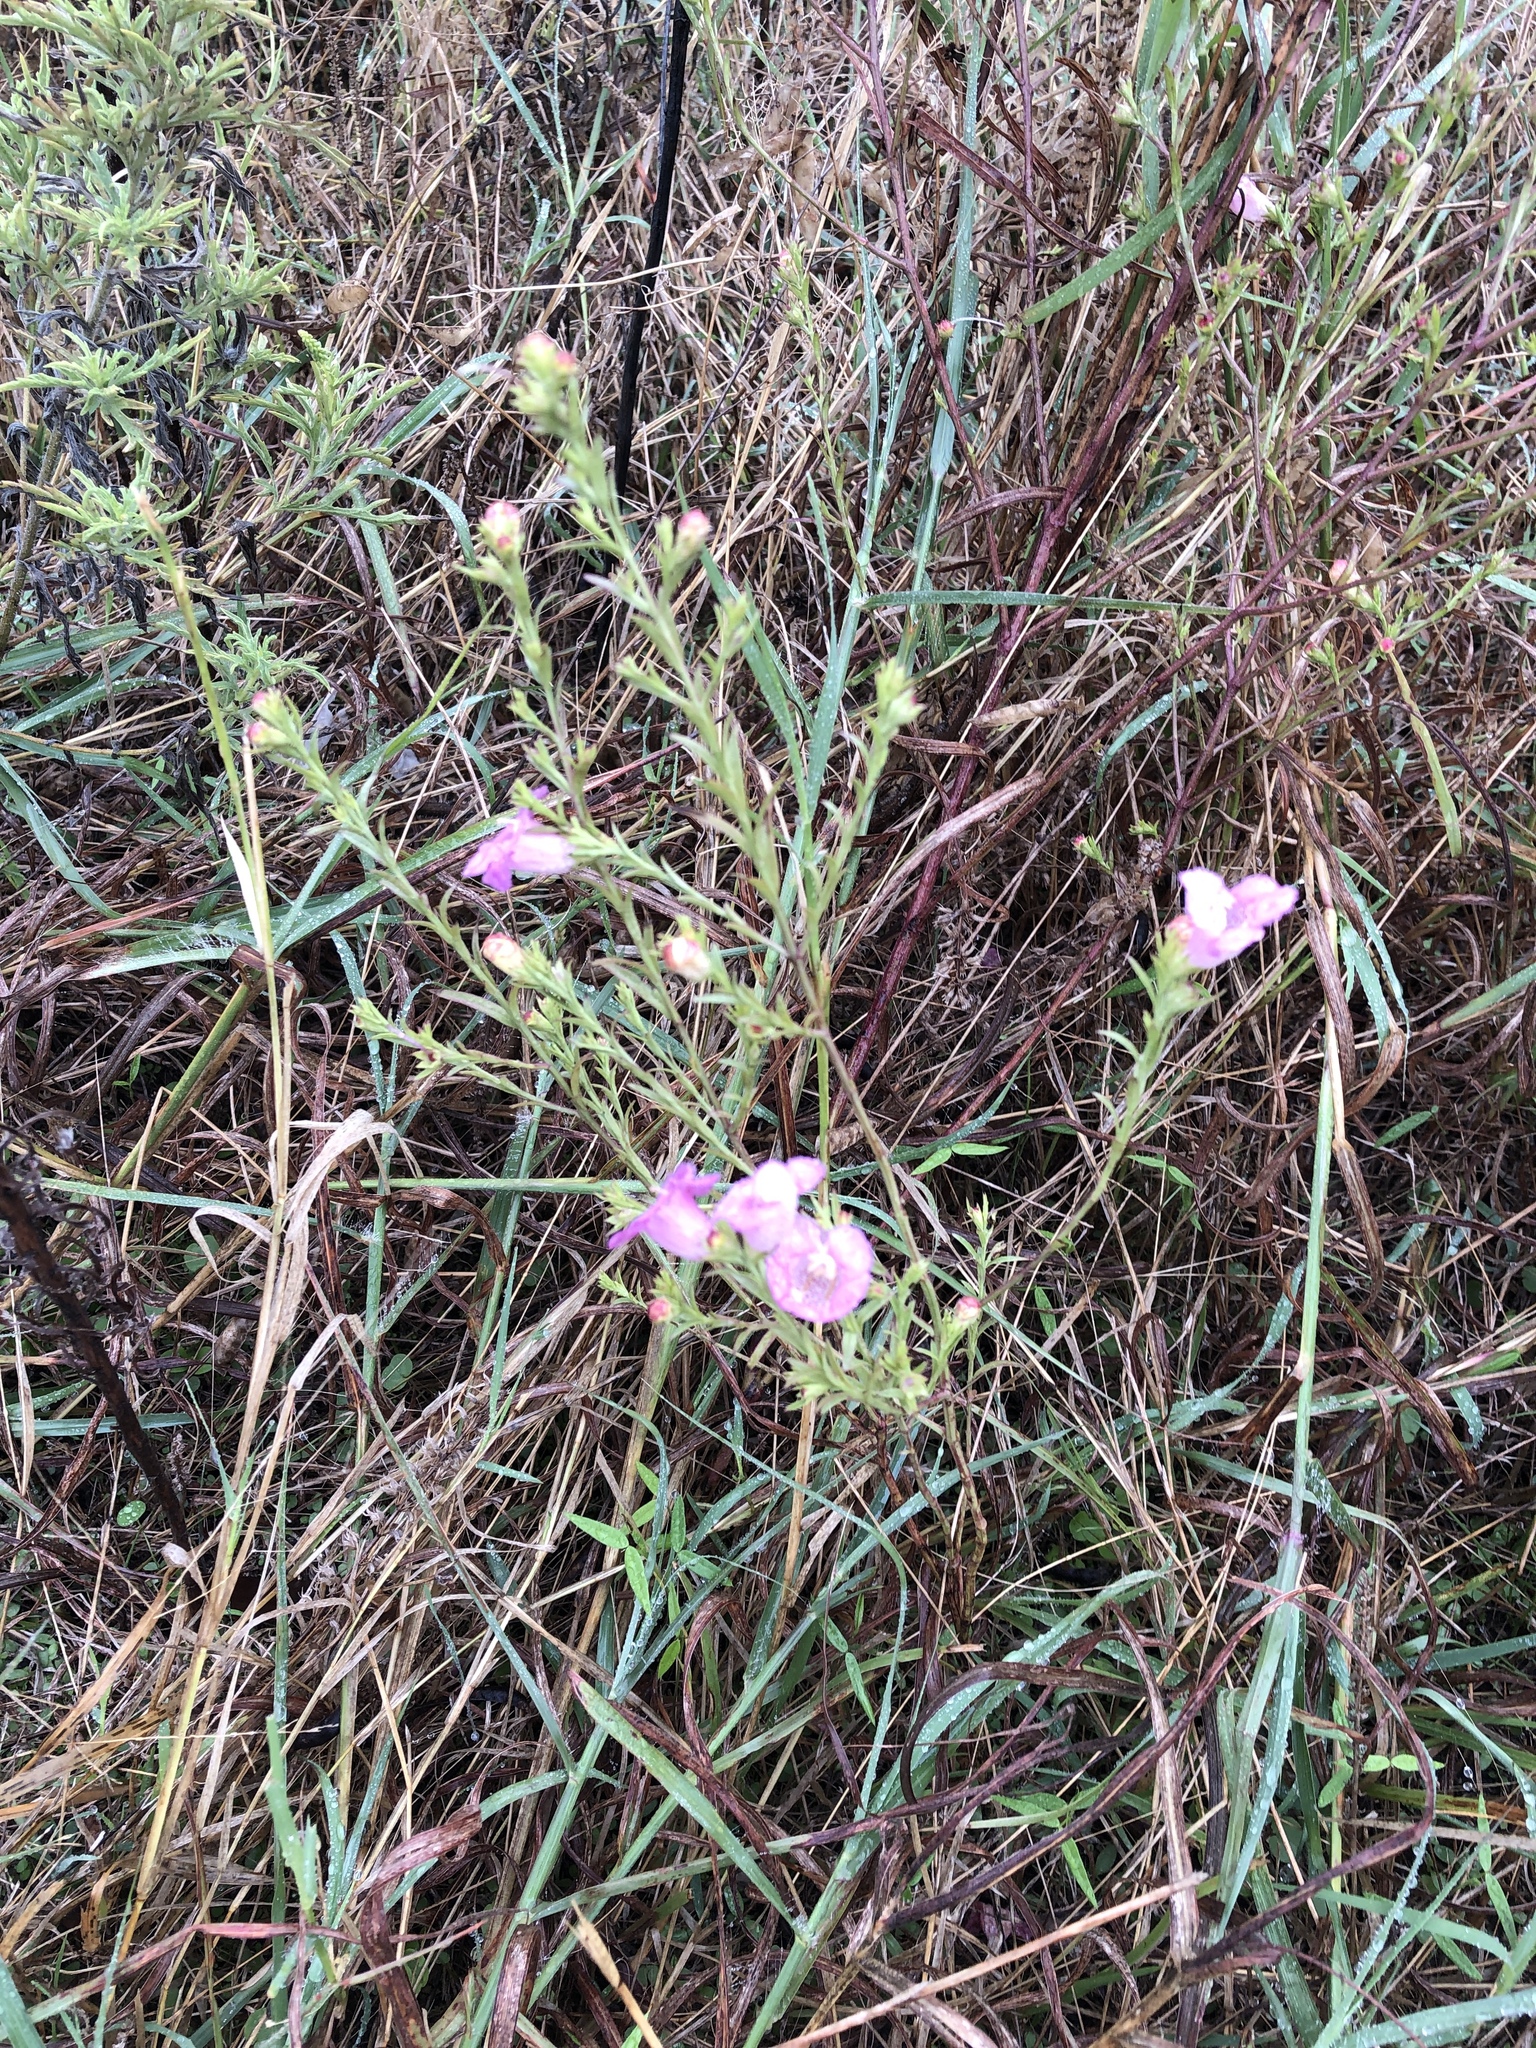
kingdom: Plantae
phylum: Tracheophyta
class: Magnoliopsida
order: Lamiales
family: Orobanchaceae
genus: Agalinis
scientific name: Agalinis heterophylla
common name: Prairie agalinis
